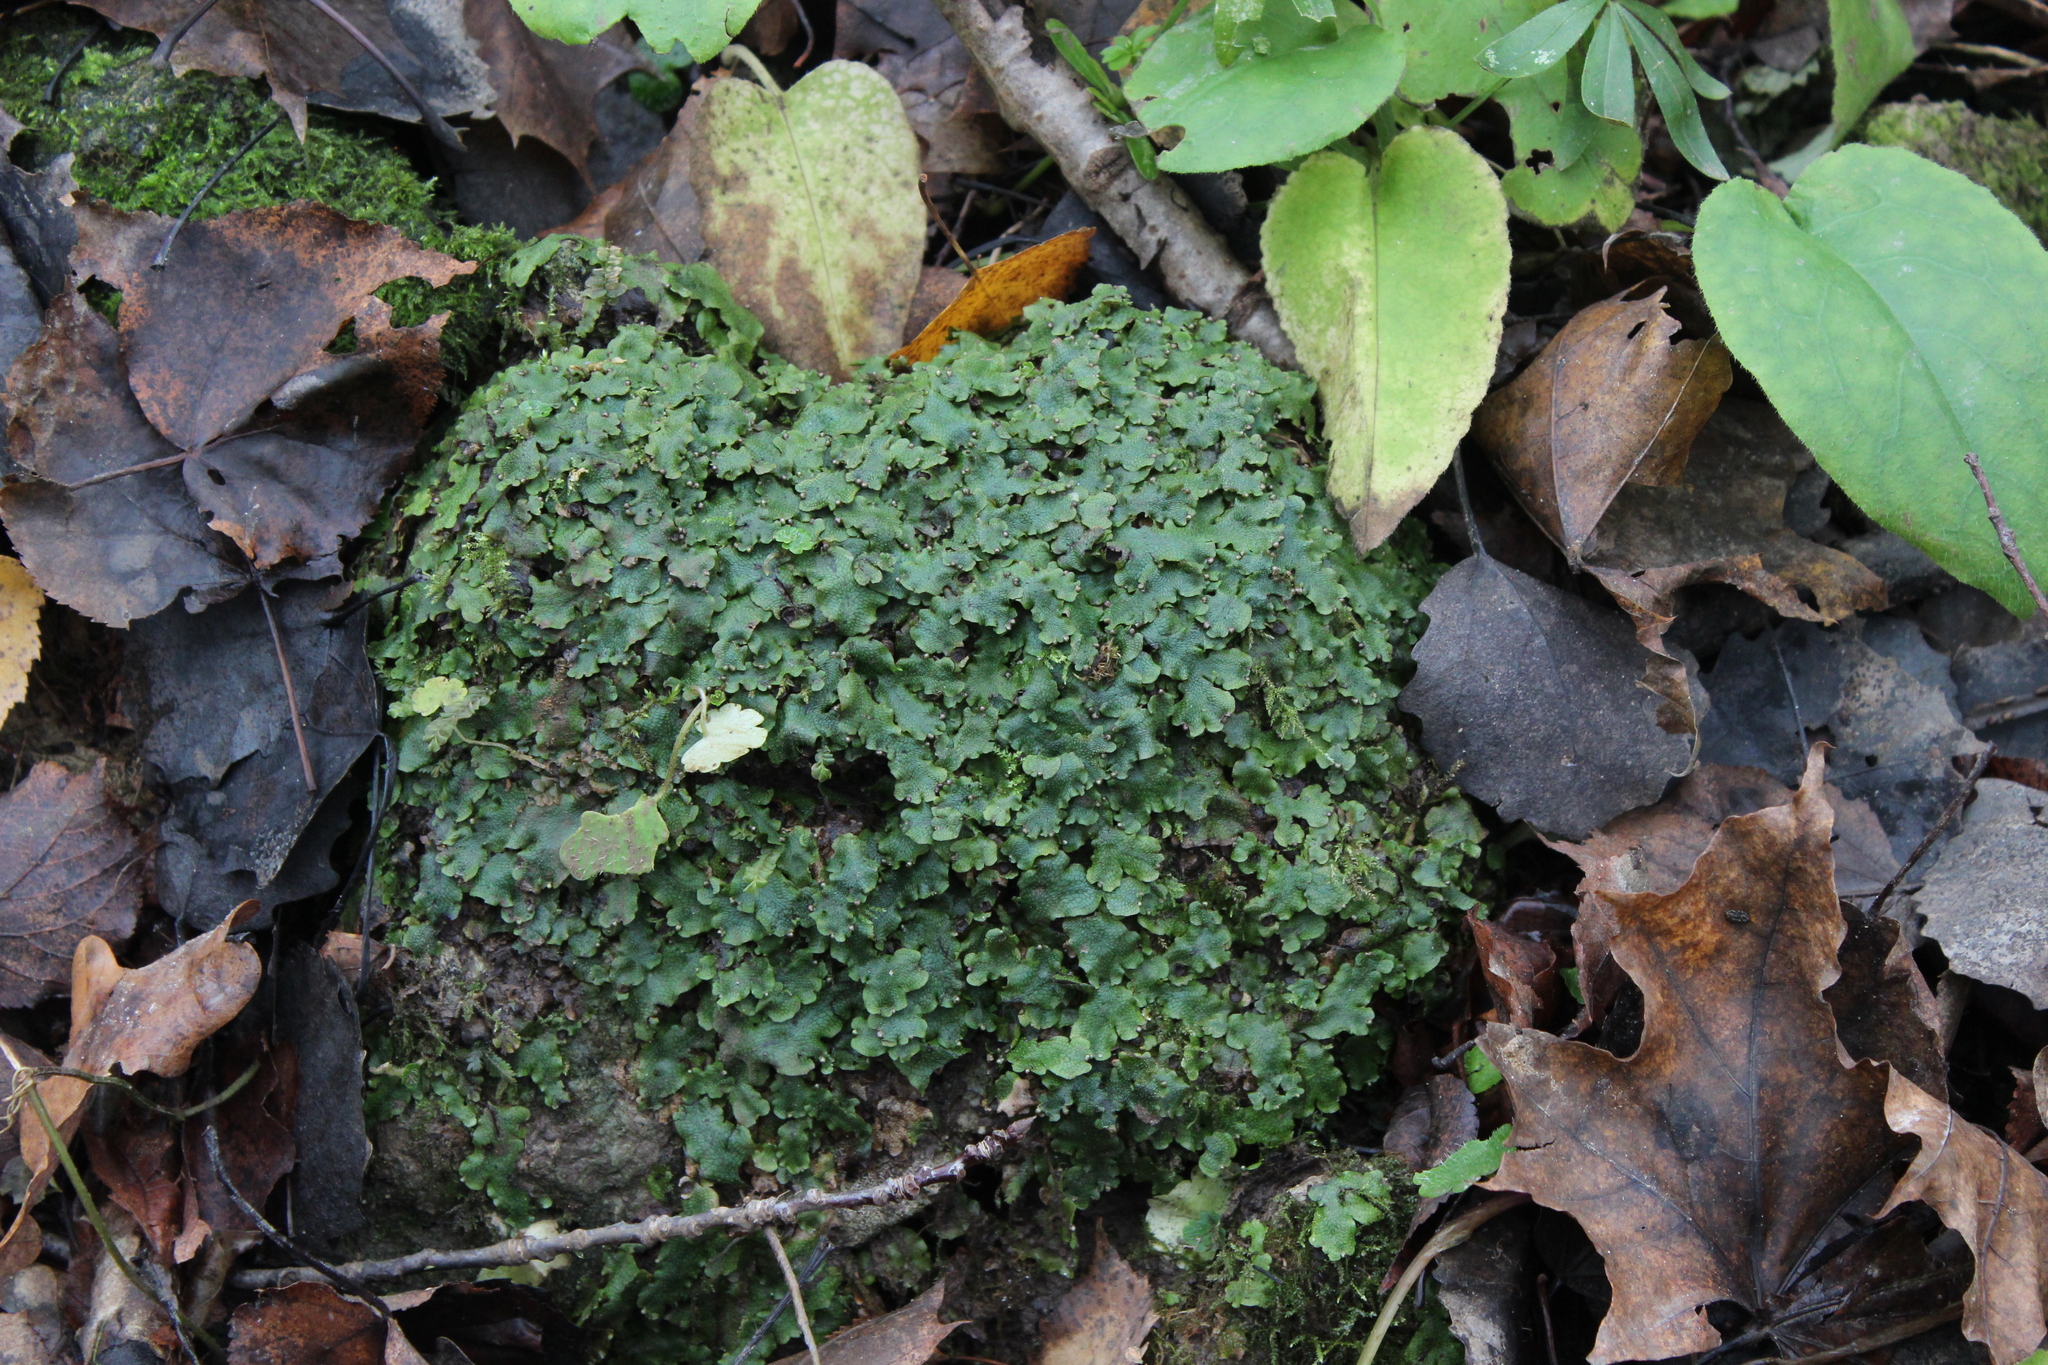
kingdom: Plantae
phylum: Marchantiophyta
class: Marchantiopsida
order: Marchantiales
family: Conocephalaceae
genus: Conocephalum
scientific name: Conocephalum salebrosum
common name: Cat-tongue liverwort
